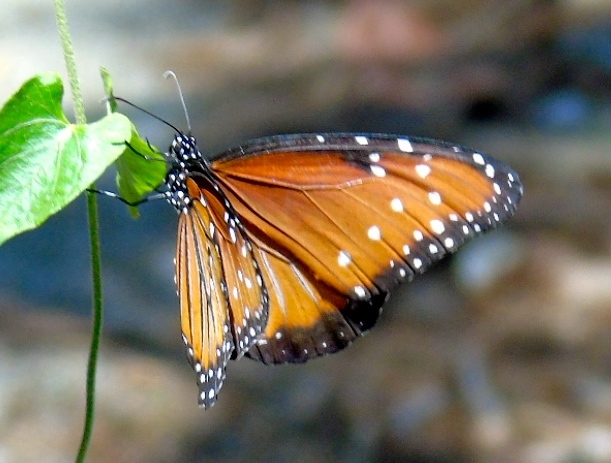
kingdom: Animalia
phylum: Arthropoda
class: Insecta
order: Lepidoptera
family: Nymphalidae
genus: Danaus
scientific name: Danaus gilippus
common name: Queen
